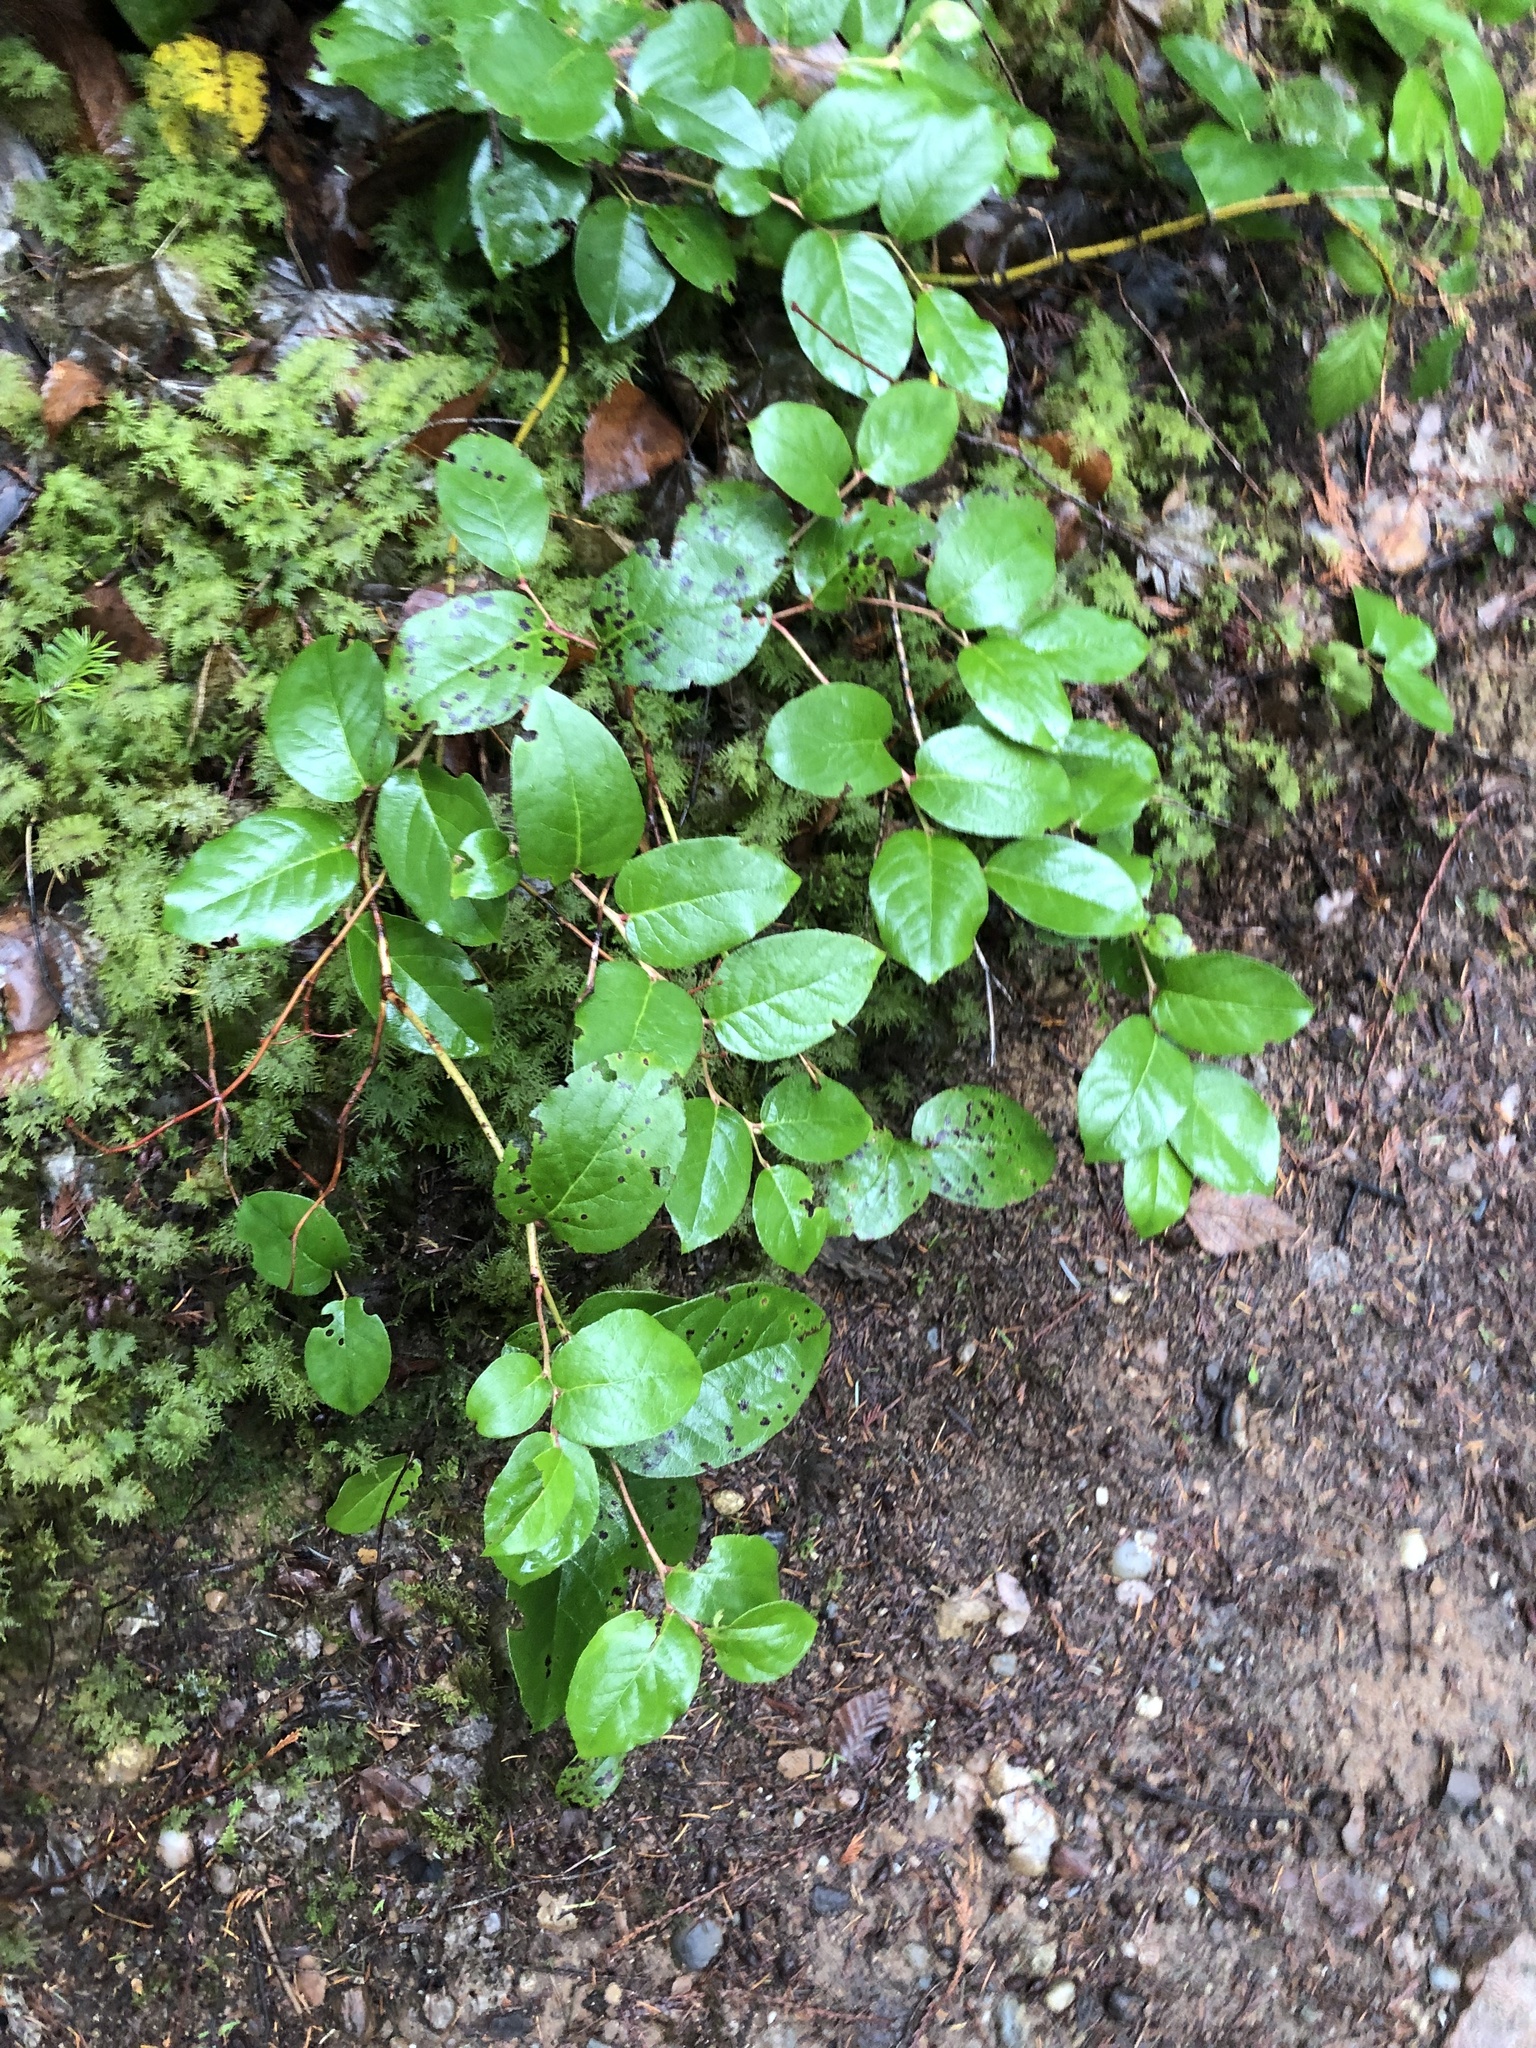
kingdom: Plantae
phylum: Tracheophyta
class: Magnoliopsida
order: Ericales
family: Ericaceae
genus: Gaultheria
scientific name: Gaultheria shallon
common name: Shallon
